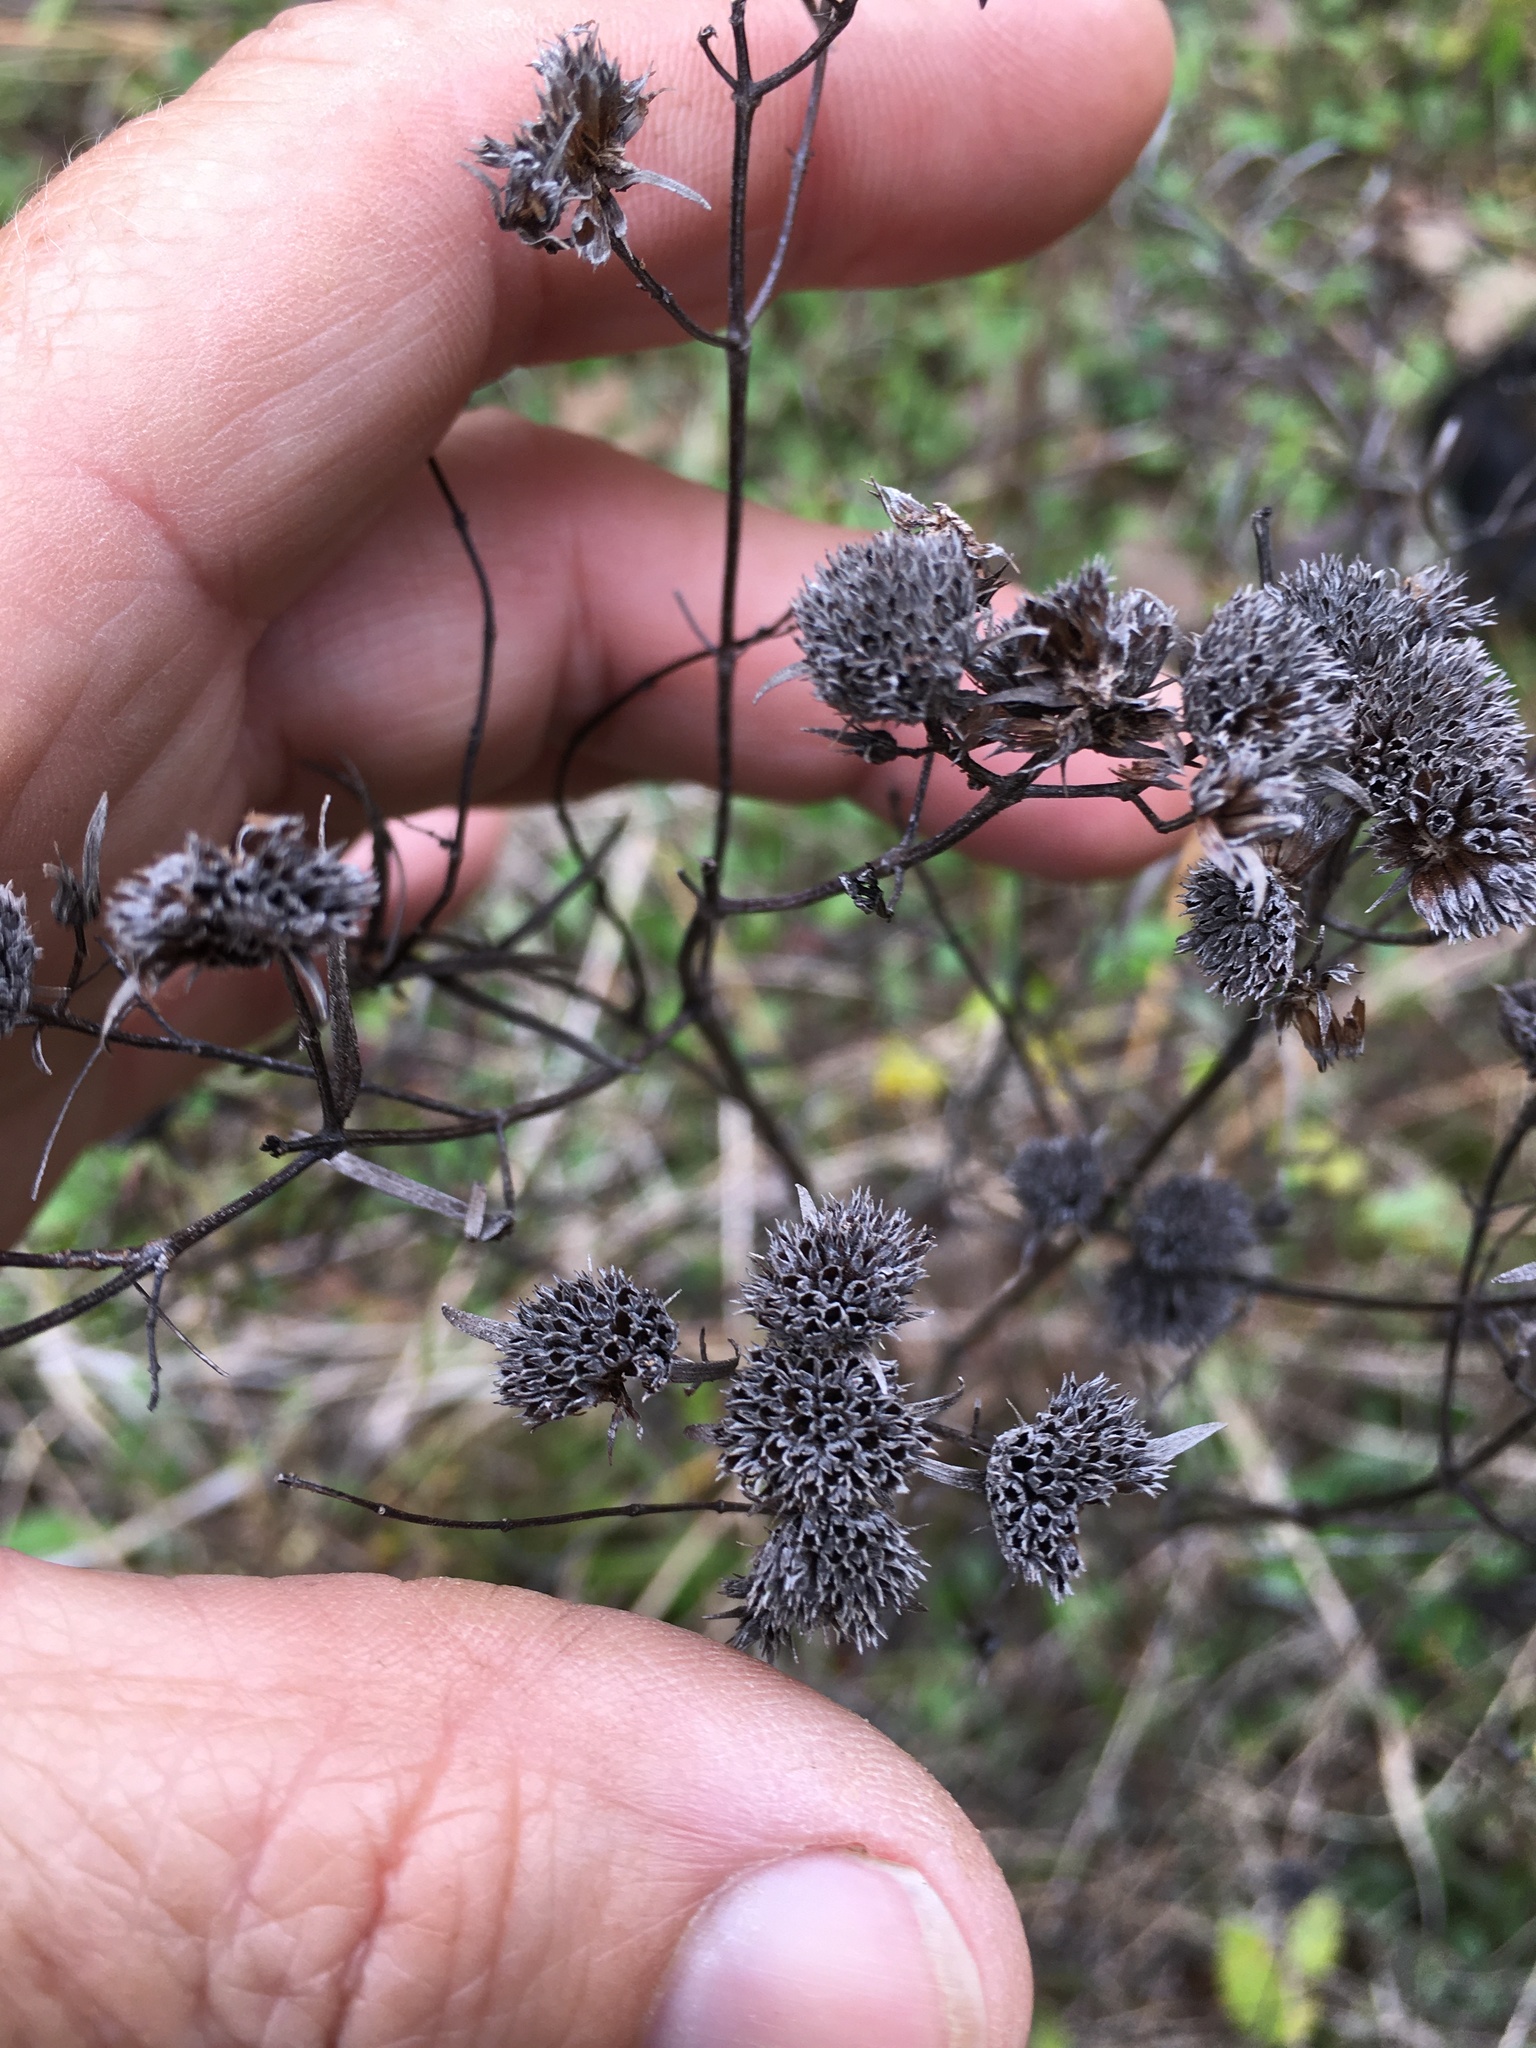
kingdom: Plantae
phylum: Tracheophyta
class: Magnoliopsida
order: Lamiales
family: Lamiaceae
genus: Pycnanthemum
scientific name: Pycnanthemum tenuifolium
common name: Narrow-leaf mountain-mint
